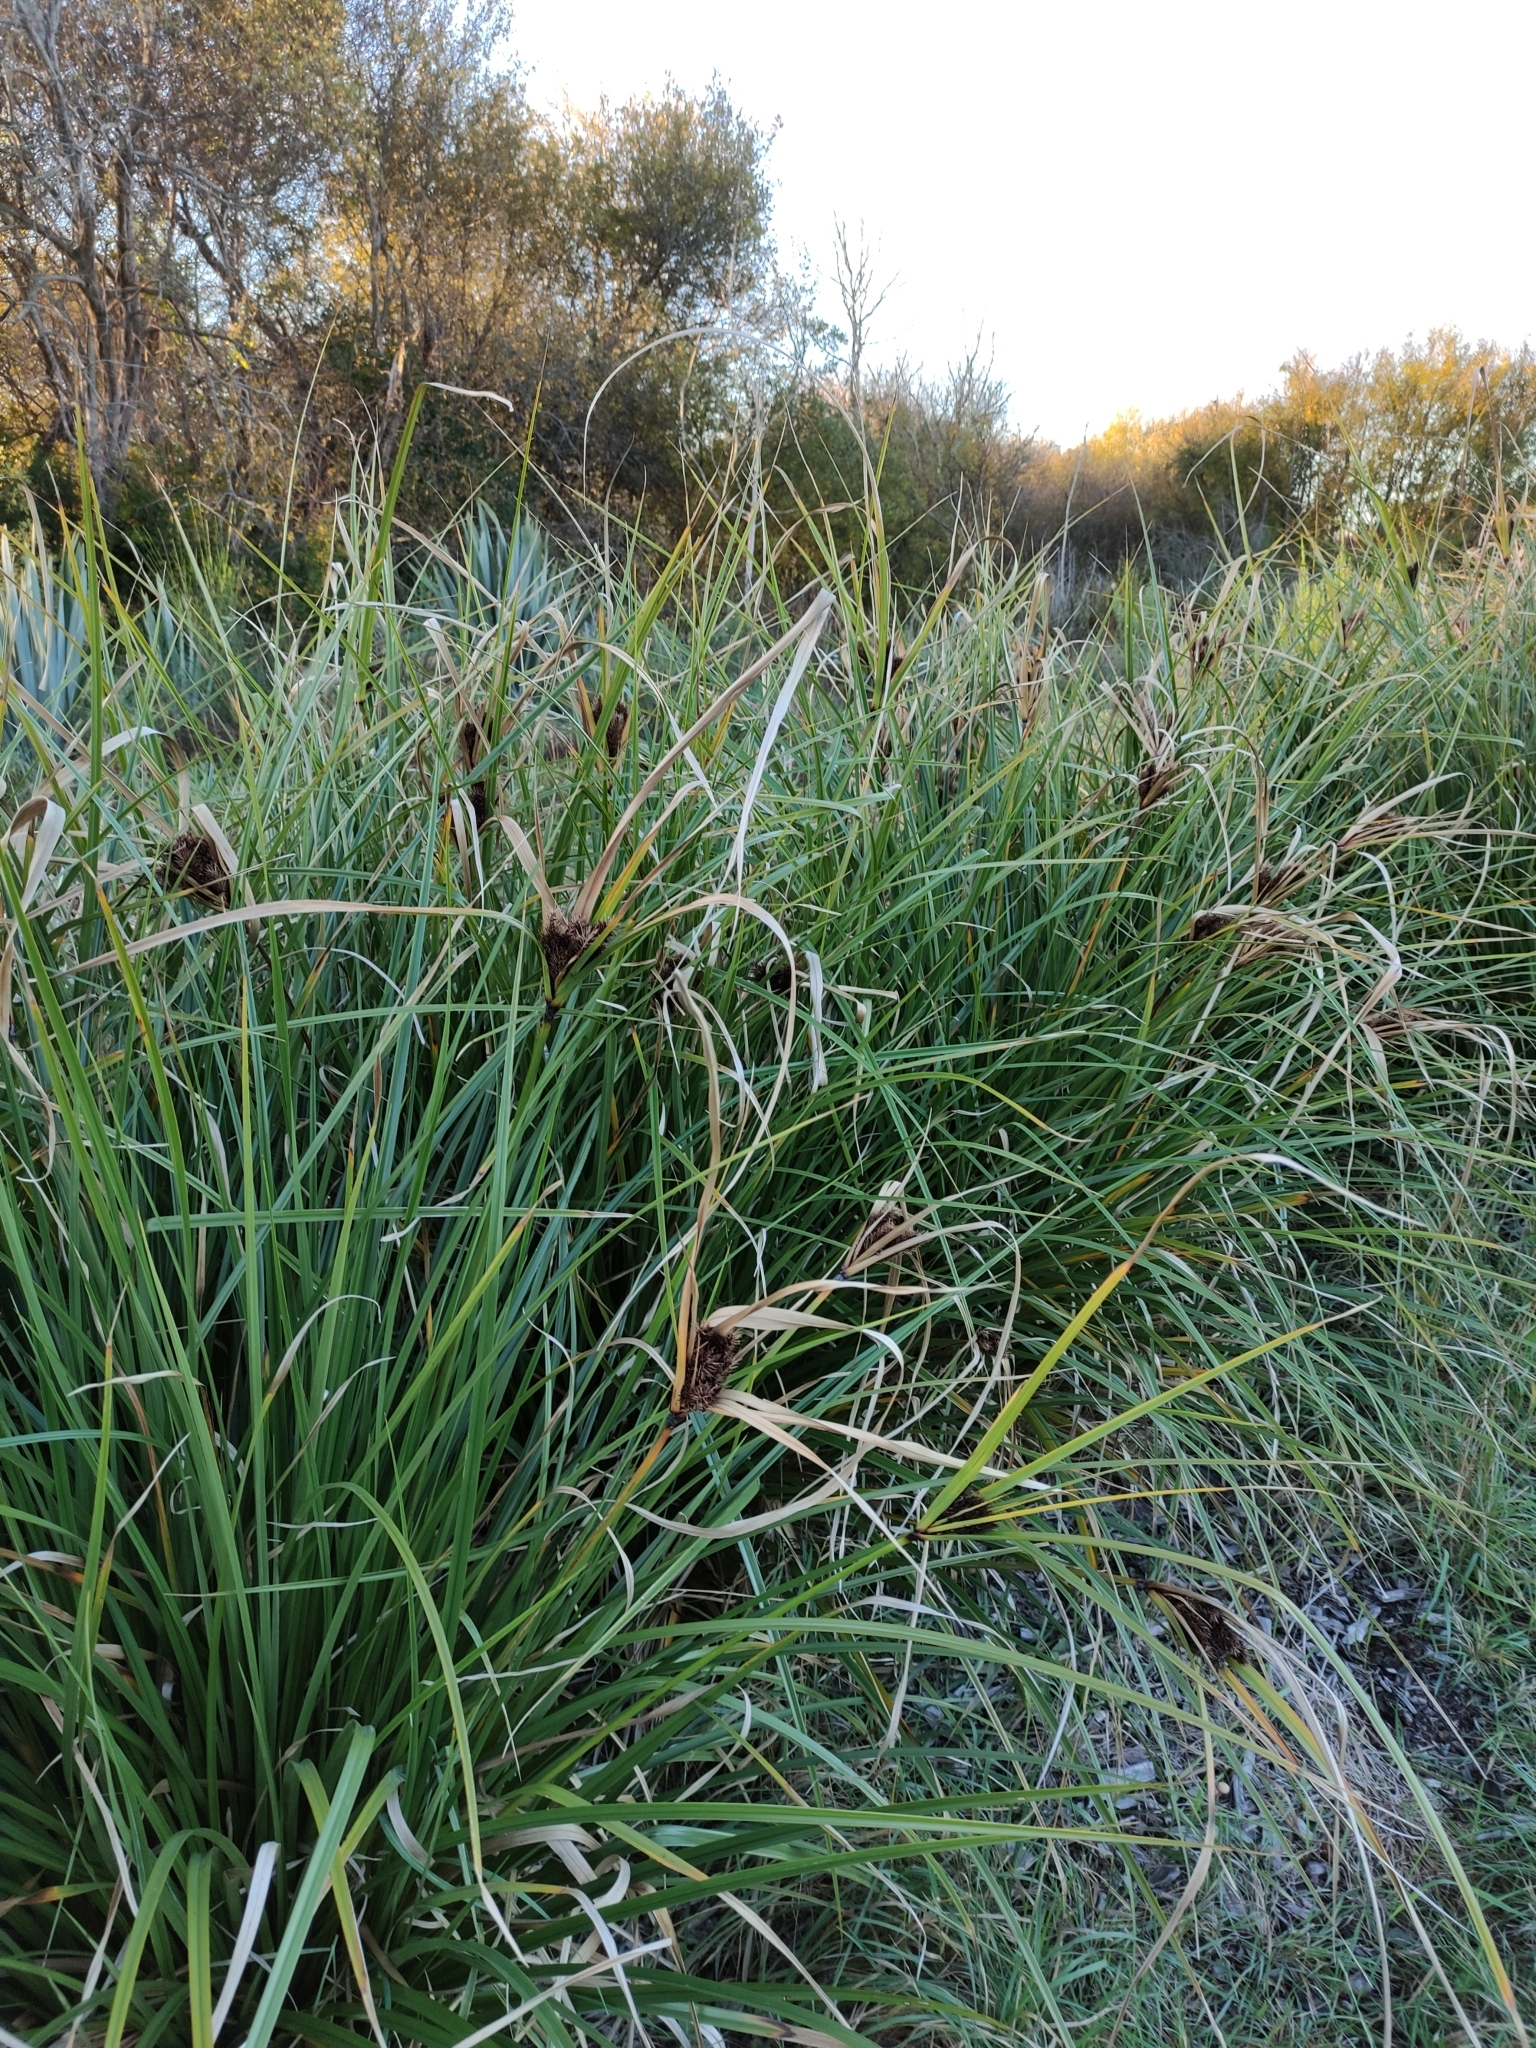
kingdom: Plantae
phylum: Tracheophyta
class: Liliopsida
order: Poales
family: Cyperaceae
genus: Cyperus
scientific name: Cyperus ustulatus
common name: Giant umbrella-sedge
